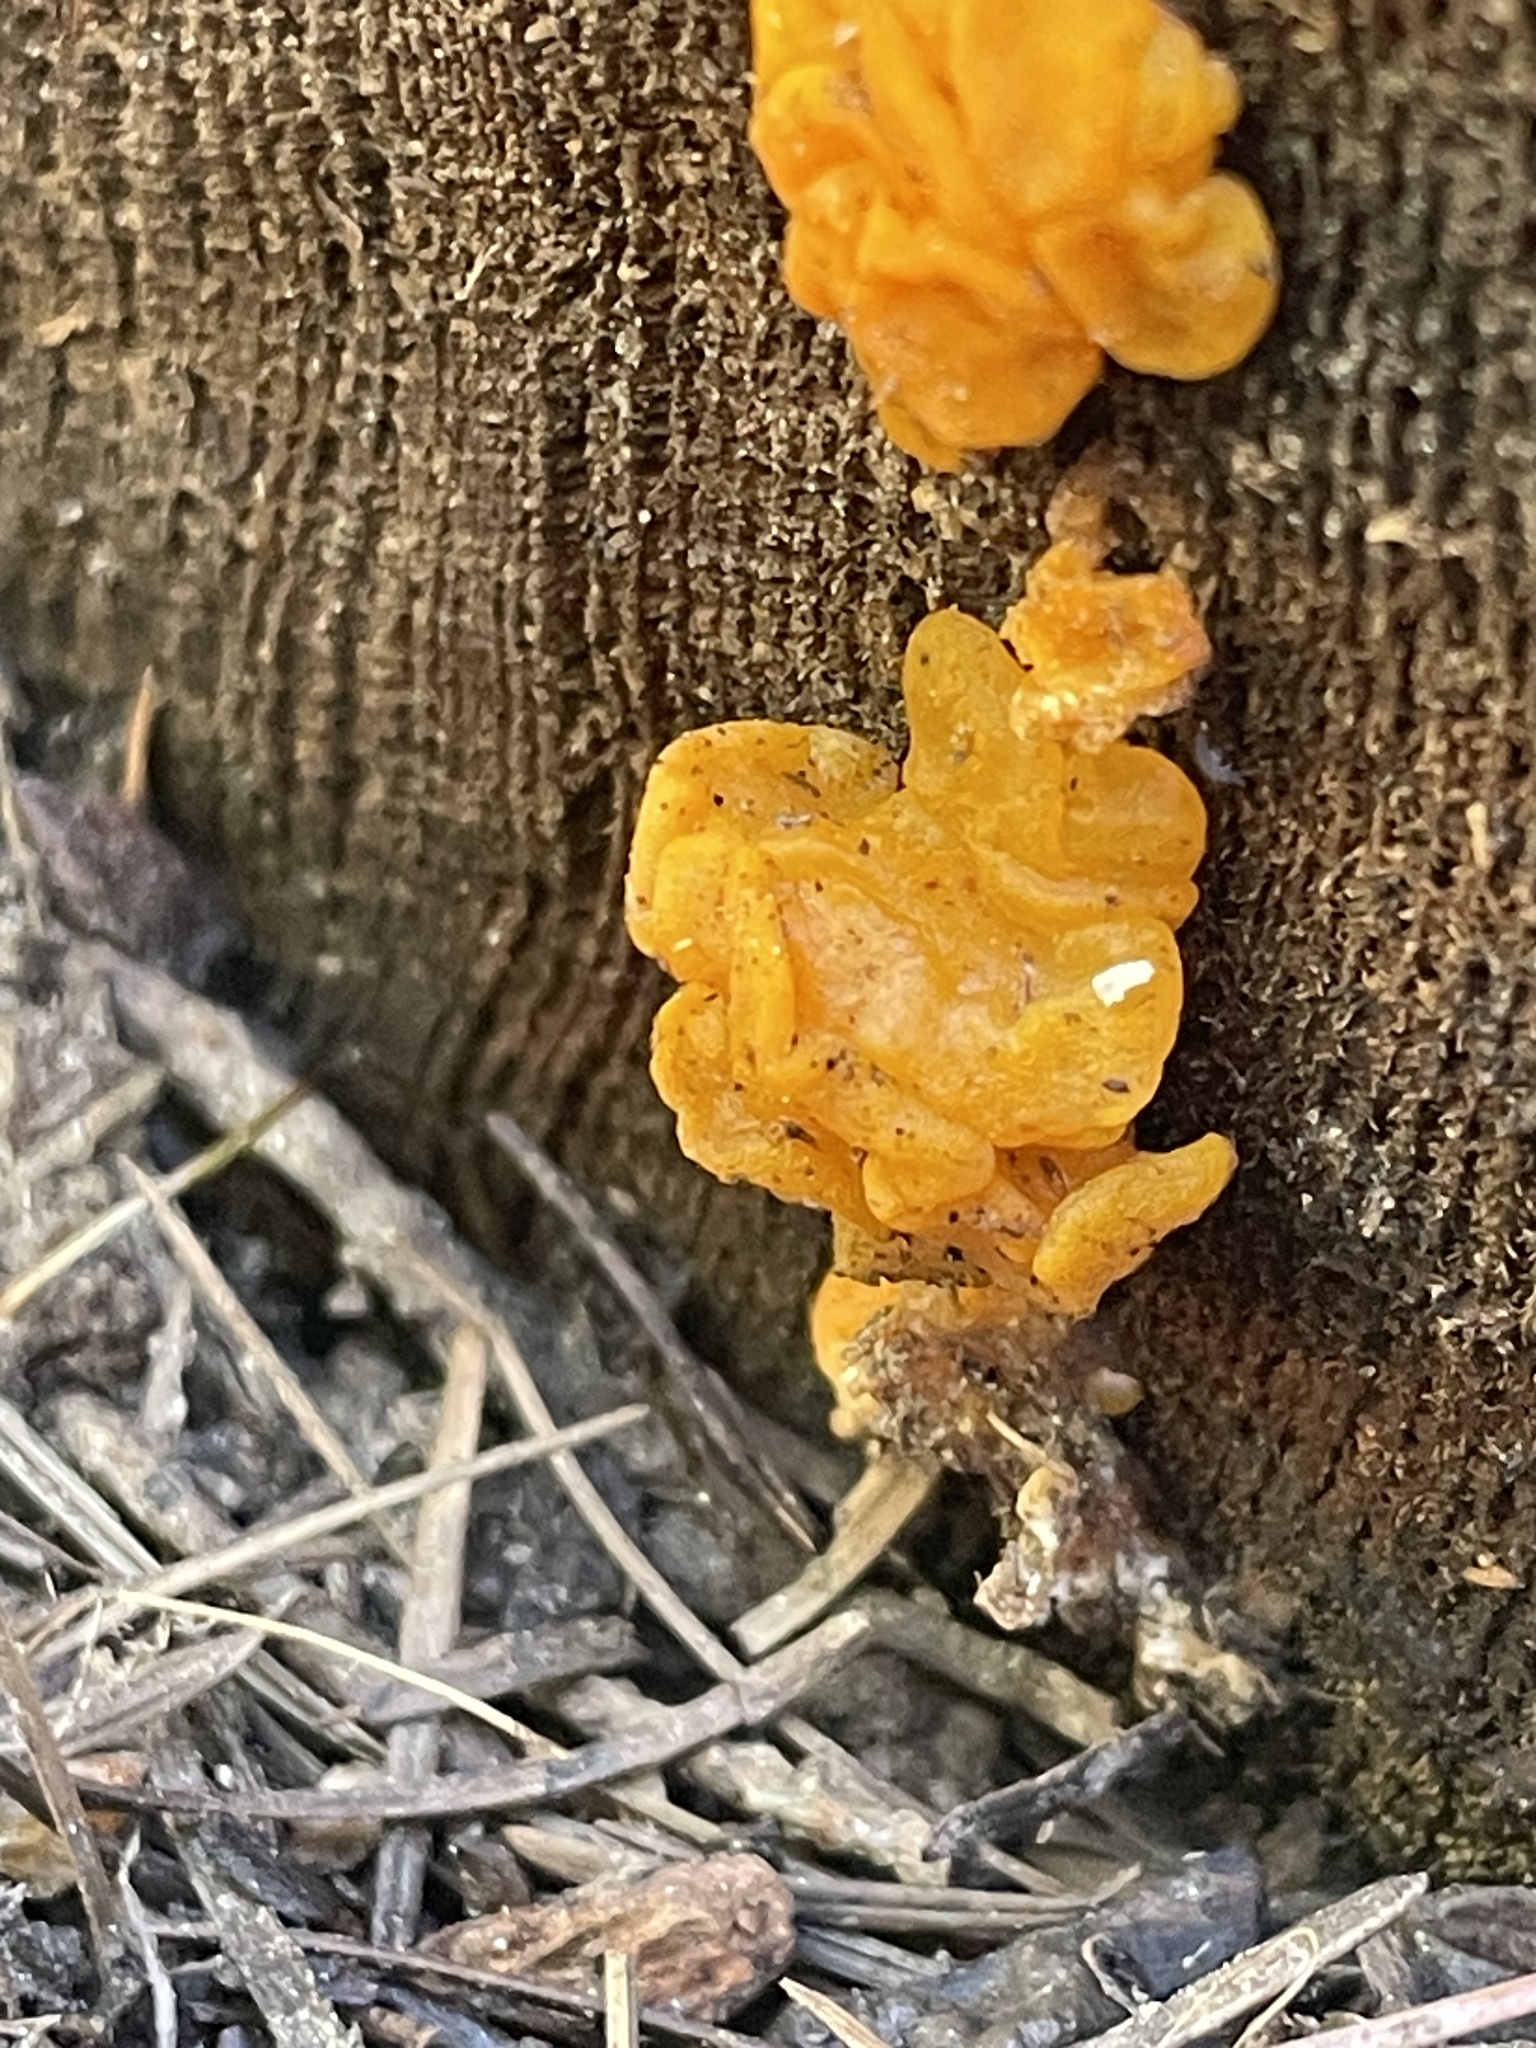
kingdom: Fungi
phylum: Basidiomycota
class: Dacrymycetes
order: Dacrymycetales
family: Dacrymycetaceae
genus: Dacrymyces
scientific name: Dacrymyces dictyosporus
